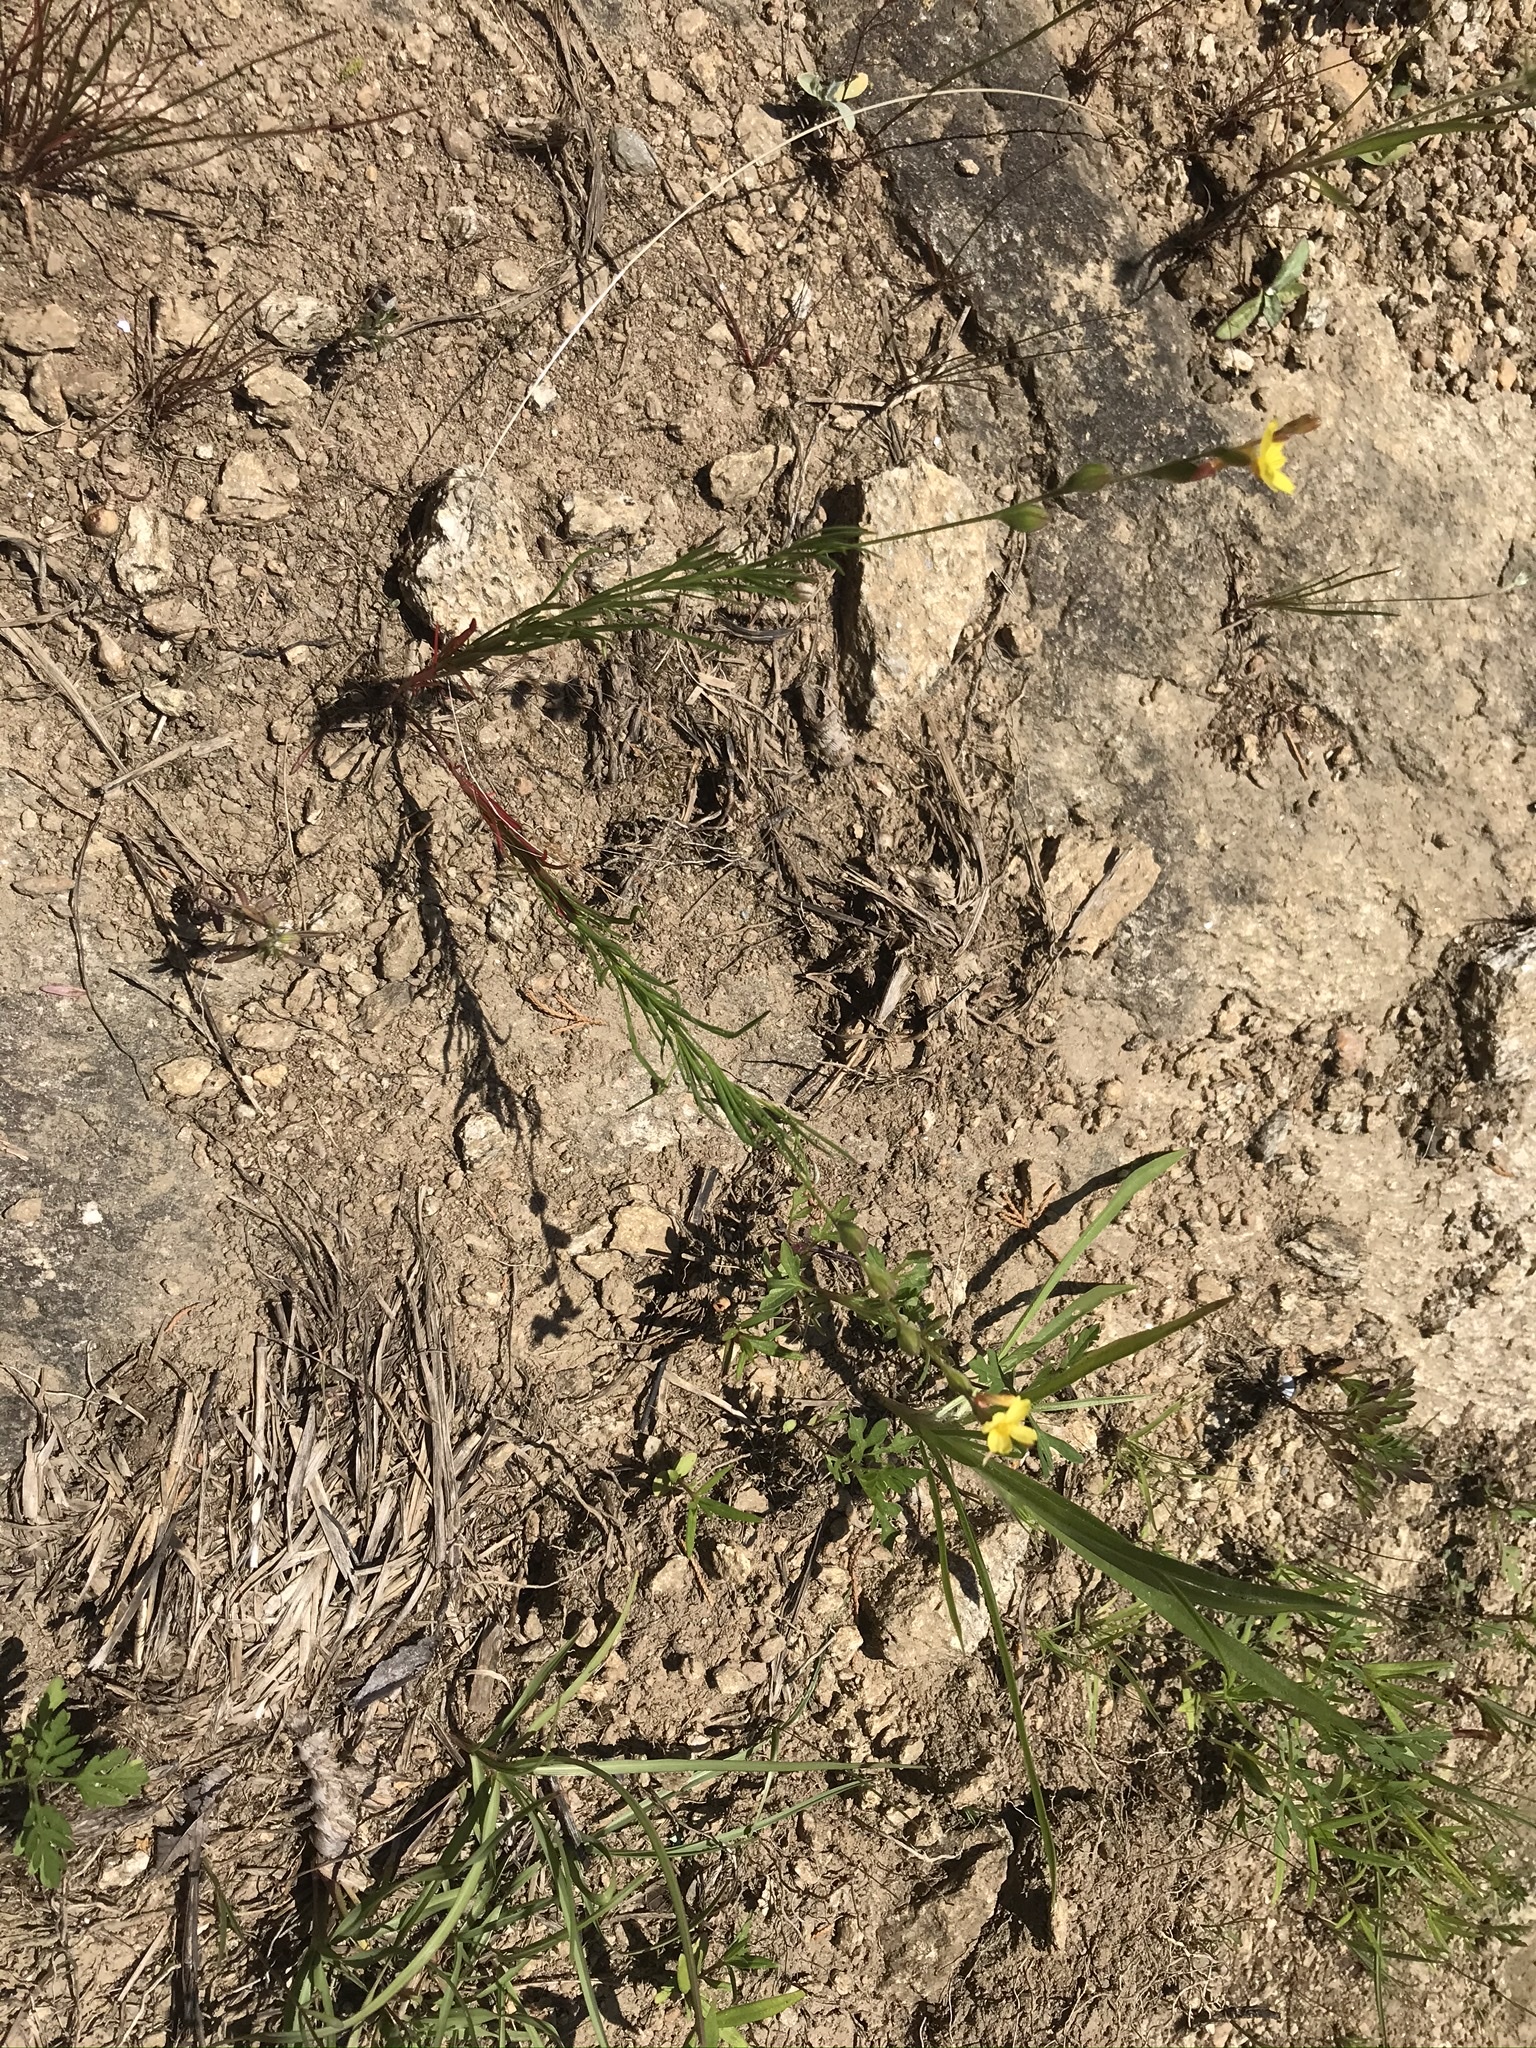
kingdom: Plantae
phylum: Tracheophyta
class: Magnoliopsida
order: Myrtales
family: Onagraceae
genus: Oenothera
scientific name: Oenothera linifolia
